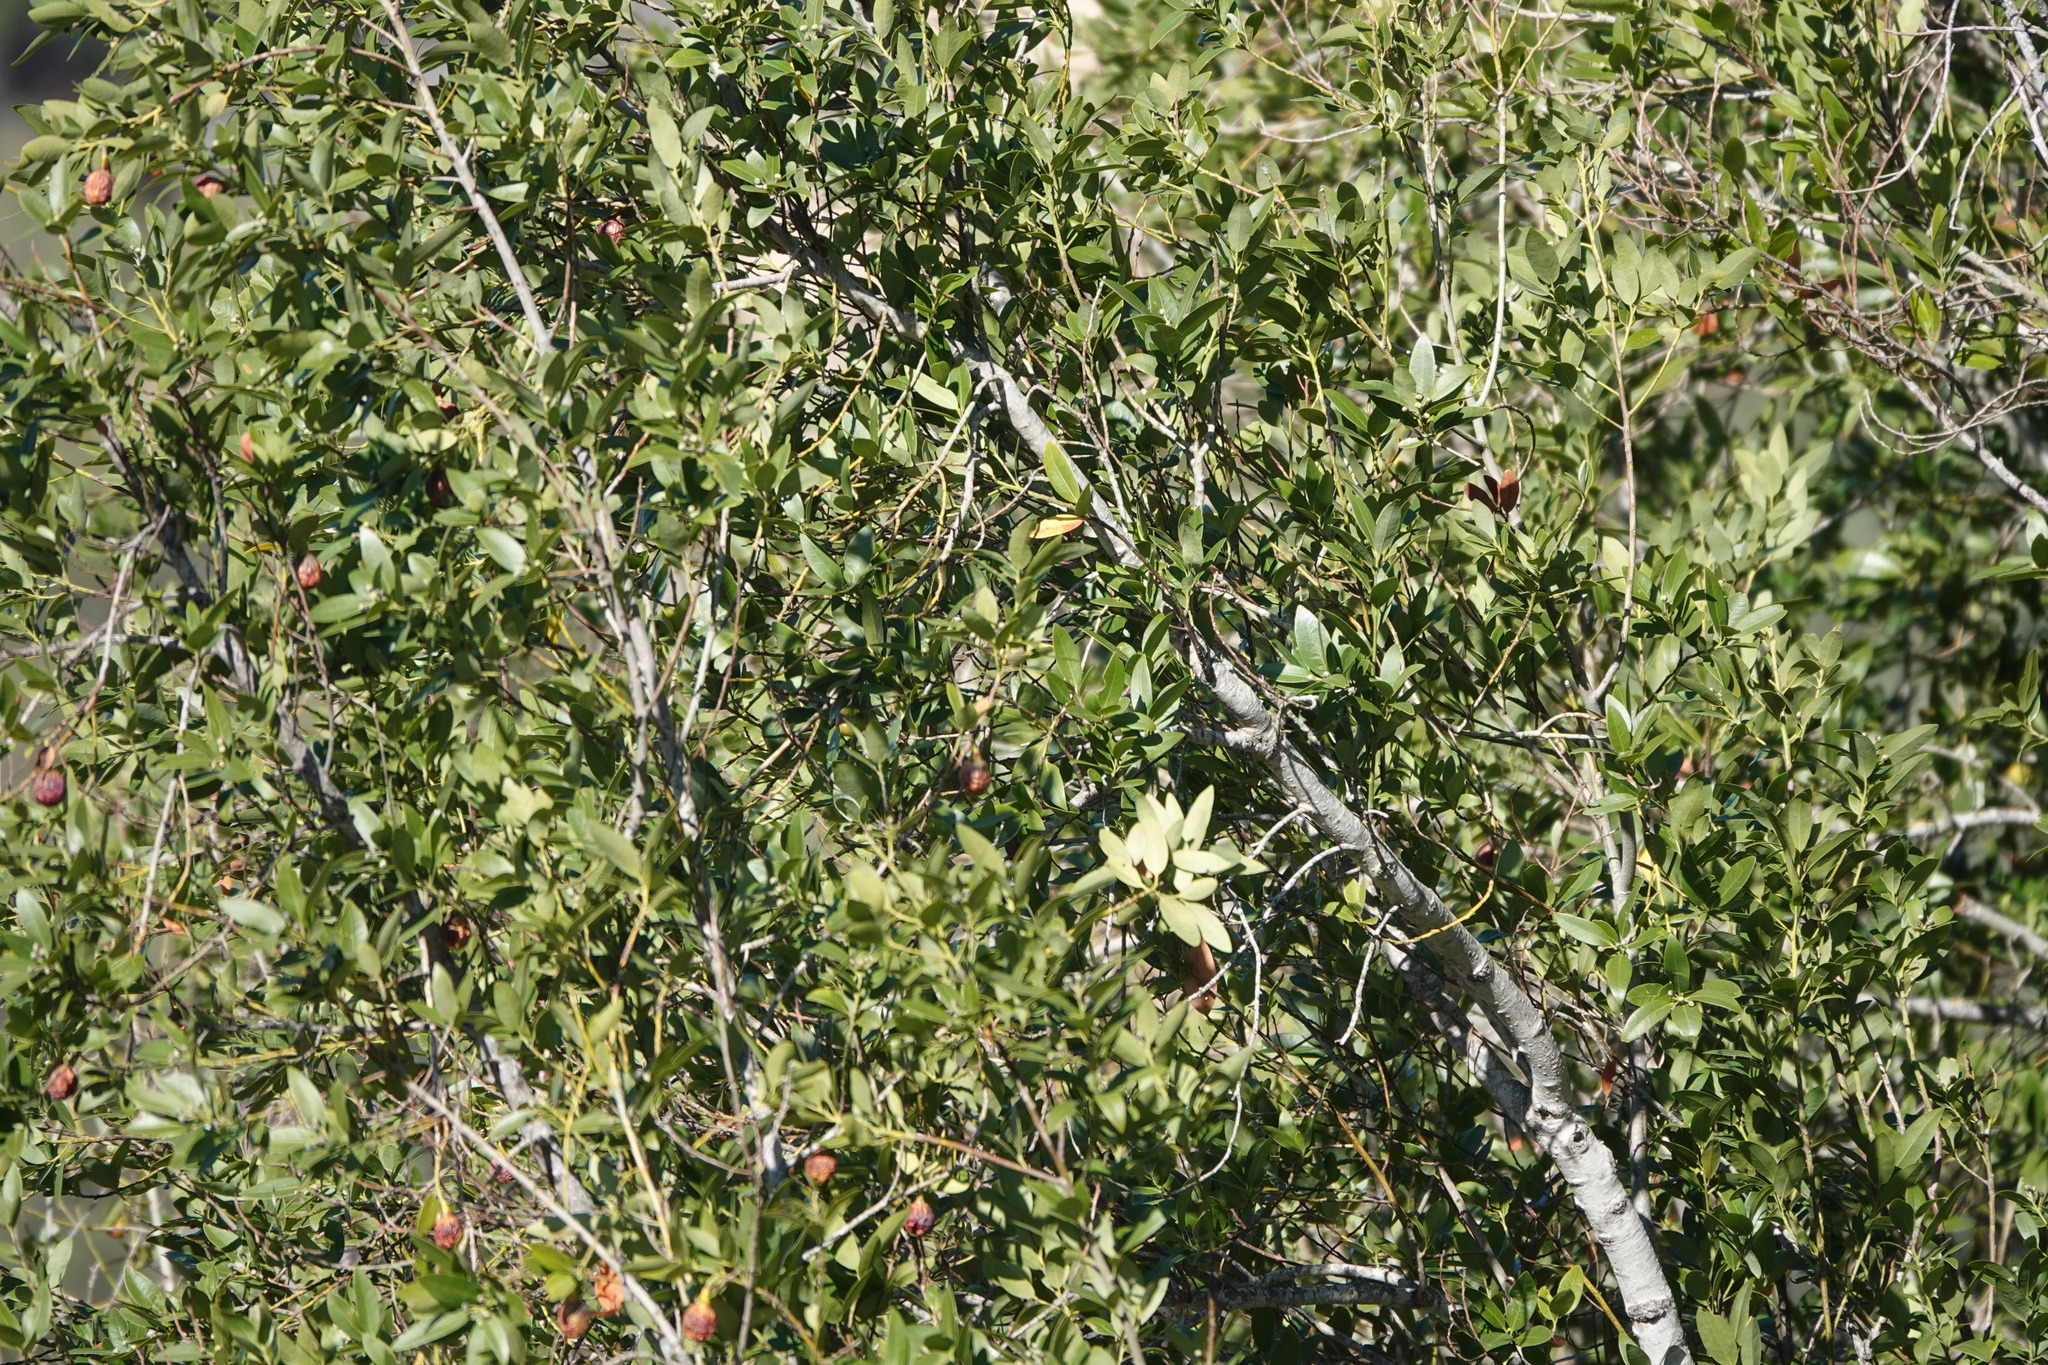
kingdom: Plantae
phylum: Tracheophyta
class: Magnoliopsida
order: Laurales
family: Lauraceae
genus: Umbellularia
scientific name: Umbellularia californica
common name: California bay
